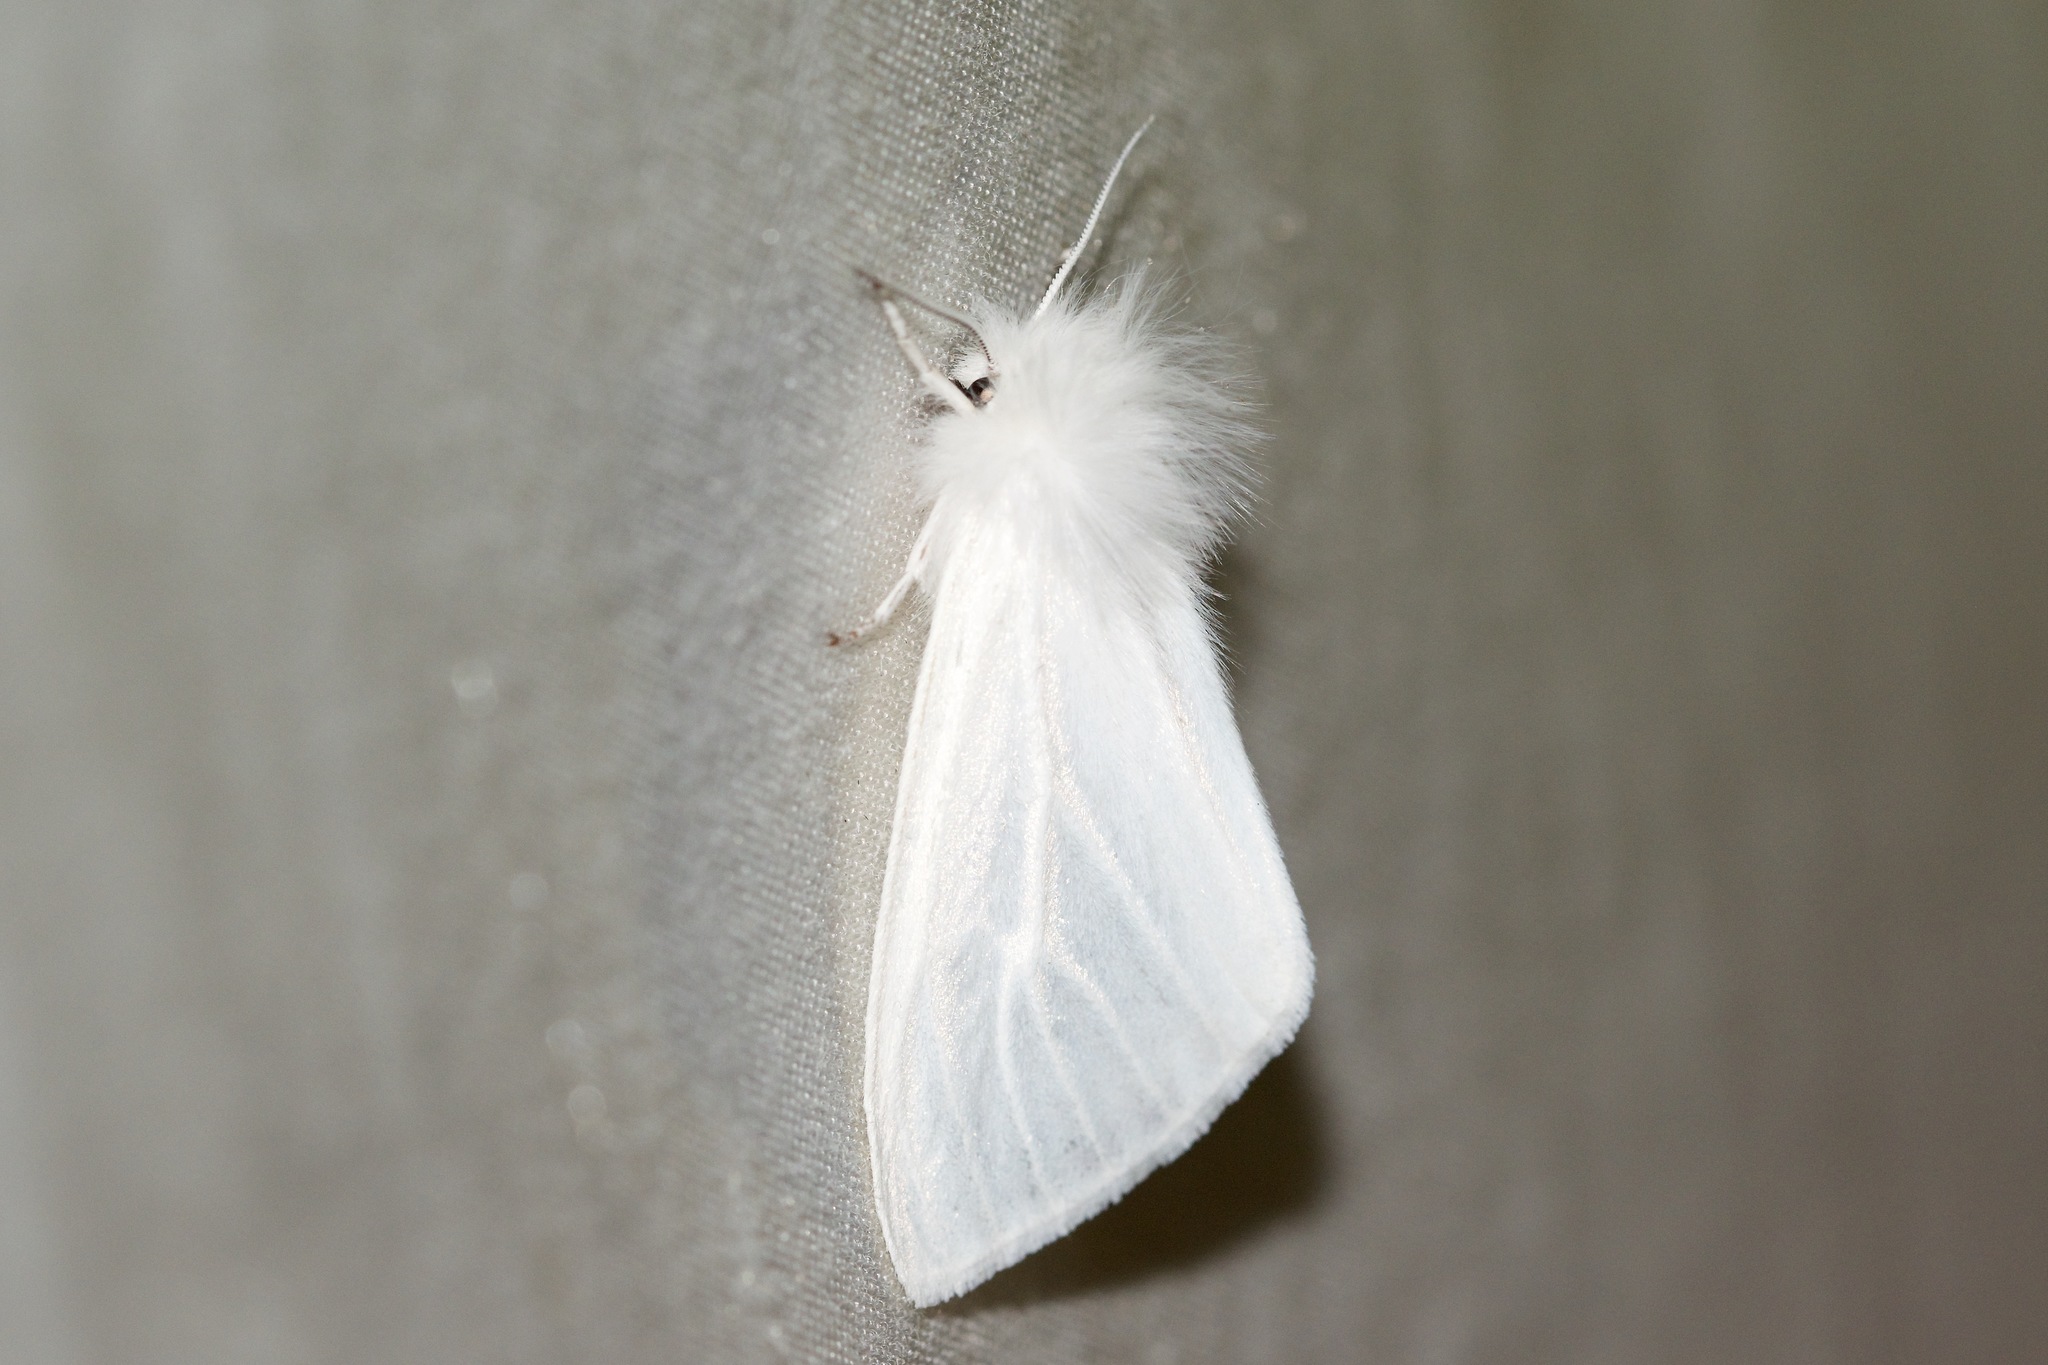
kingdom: Animalia
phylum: Arthropoda
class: Insecta
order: Lepidoptera
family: Erebidae
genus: Spilosoma
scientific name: Spilosoma latipennis
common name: Pink-legged tiger moth
